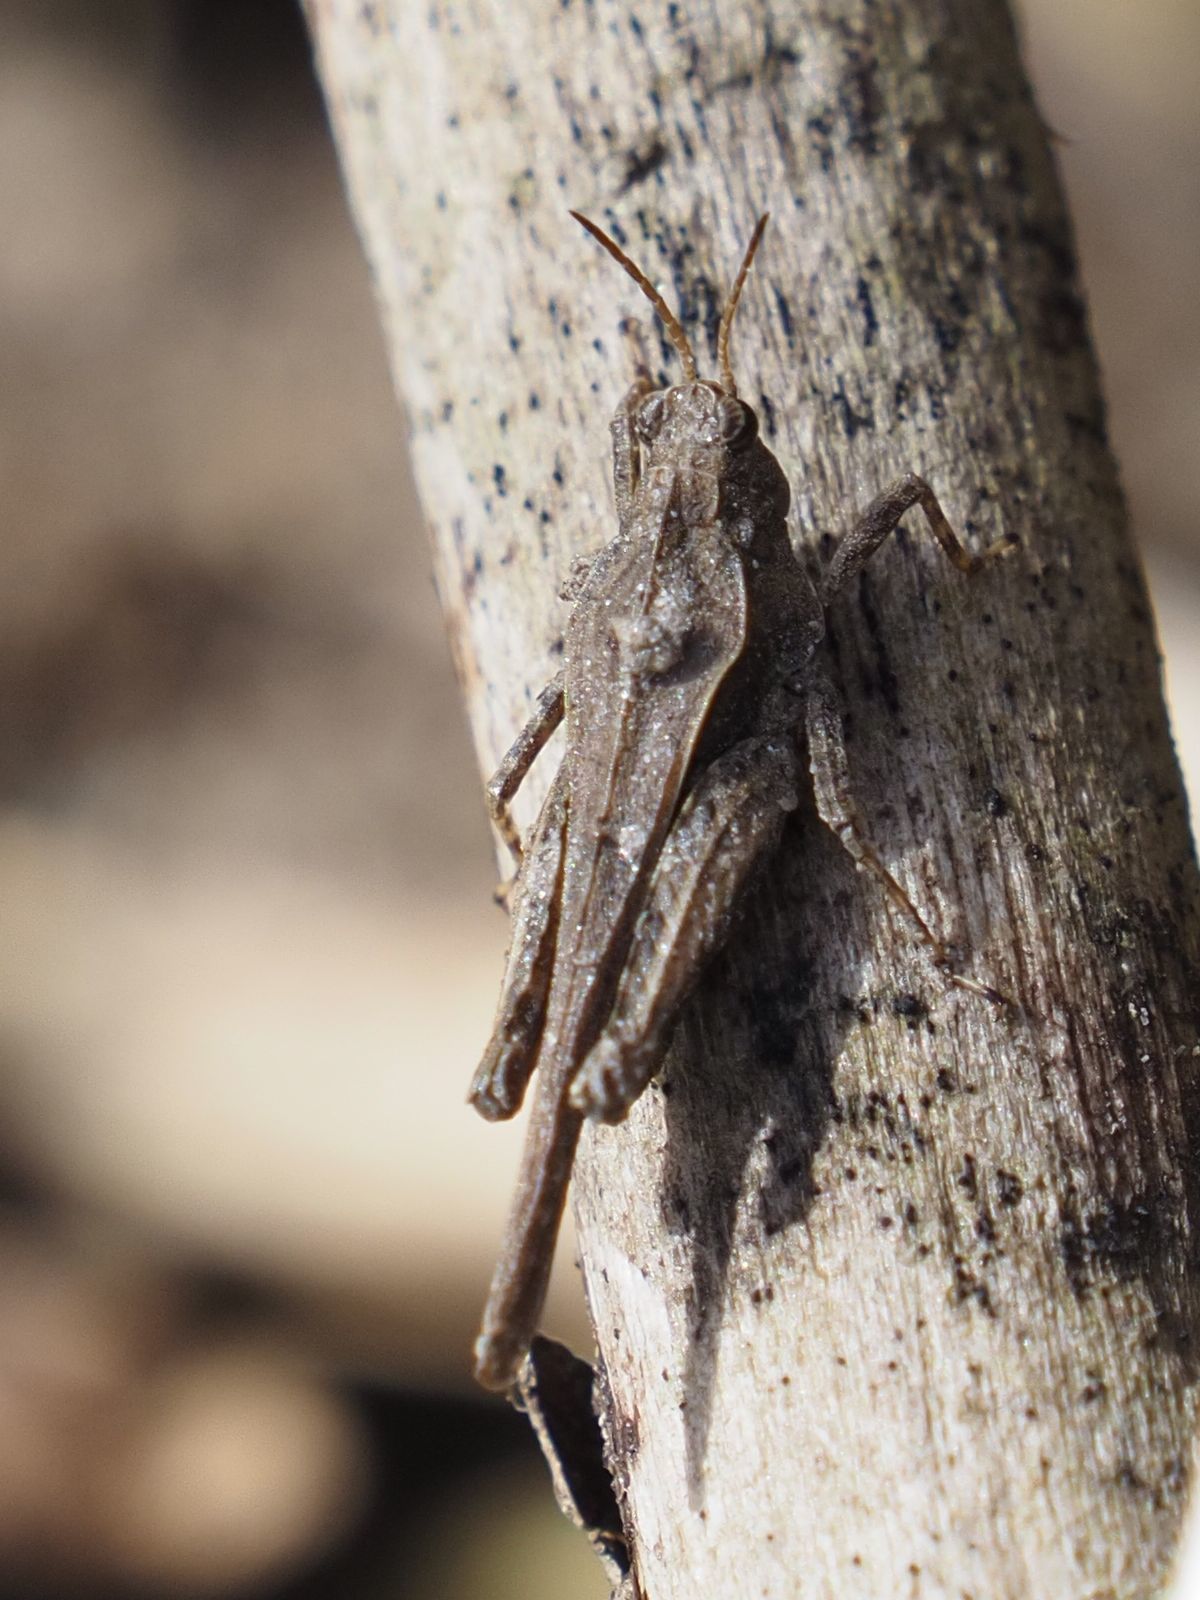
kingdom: Animalia
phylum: Arthropoda
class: Insecta
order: Orthoptera
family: Tetrigidae
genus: Tetrix
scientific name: Tetrix subulata
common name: Slender ground-hopper
